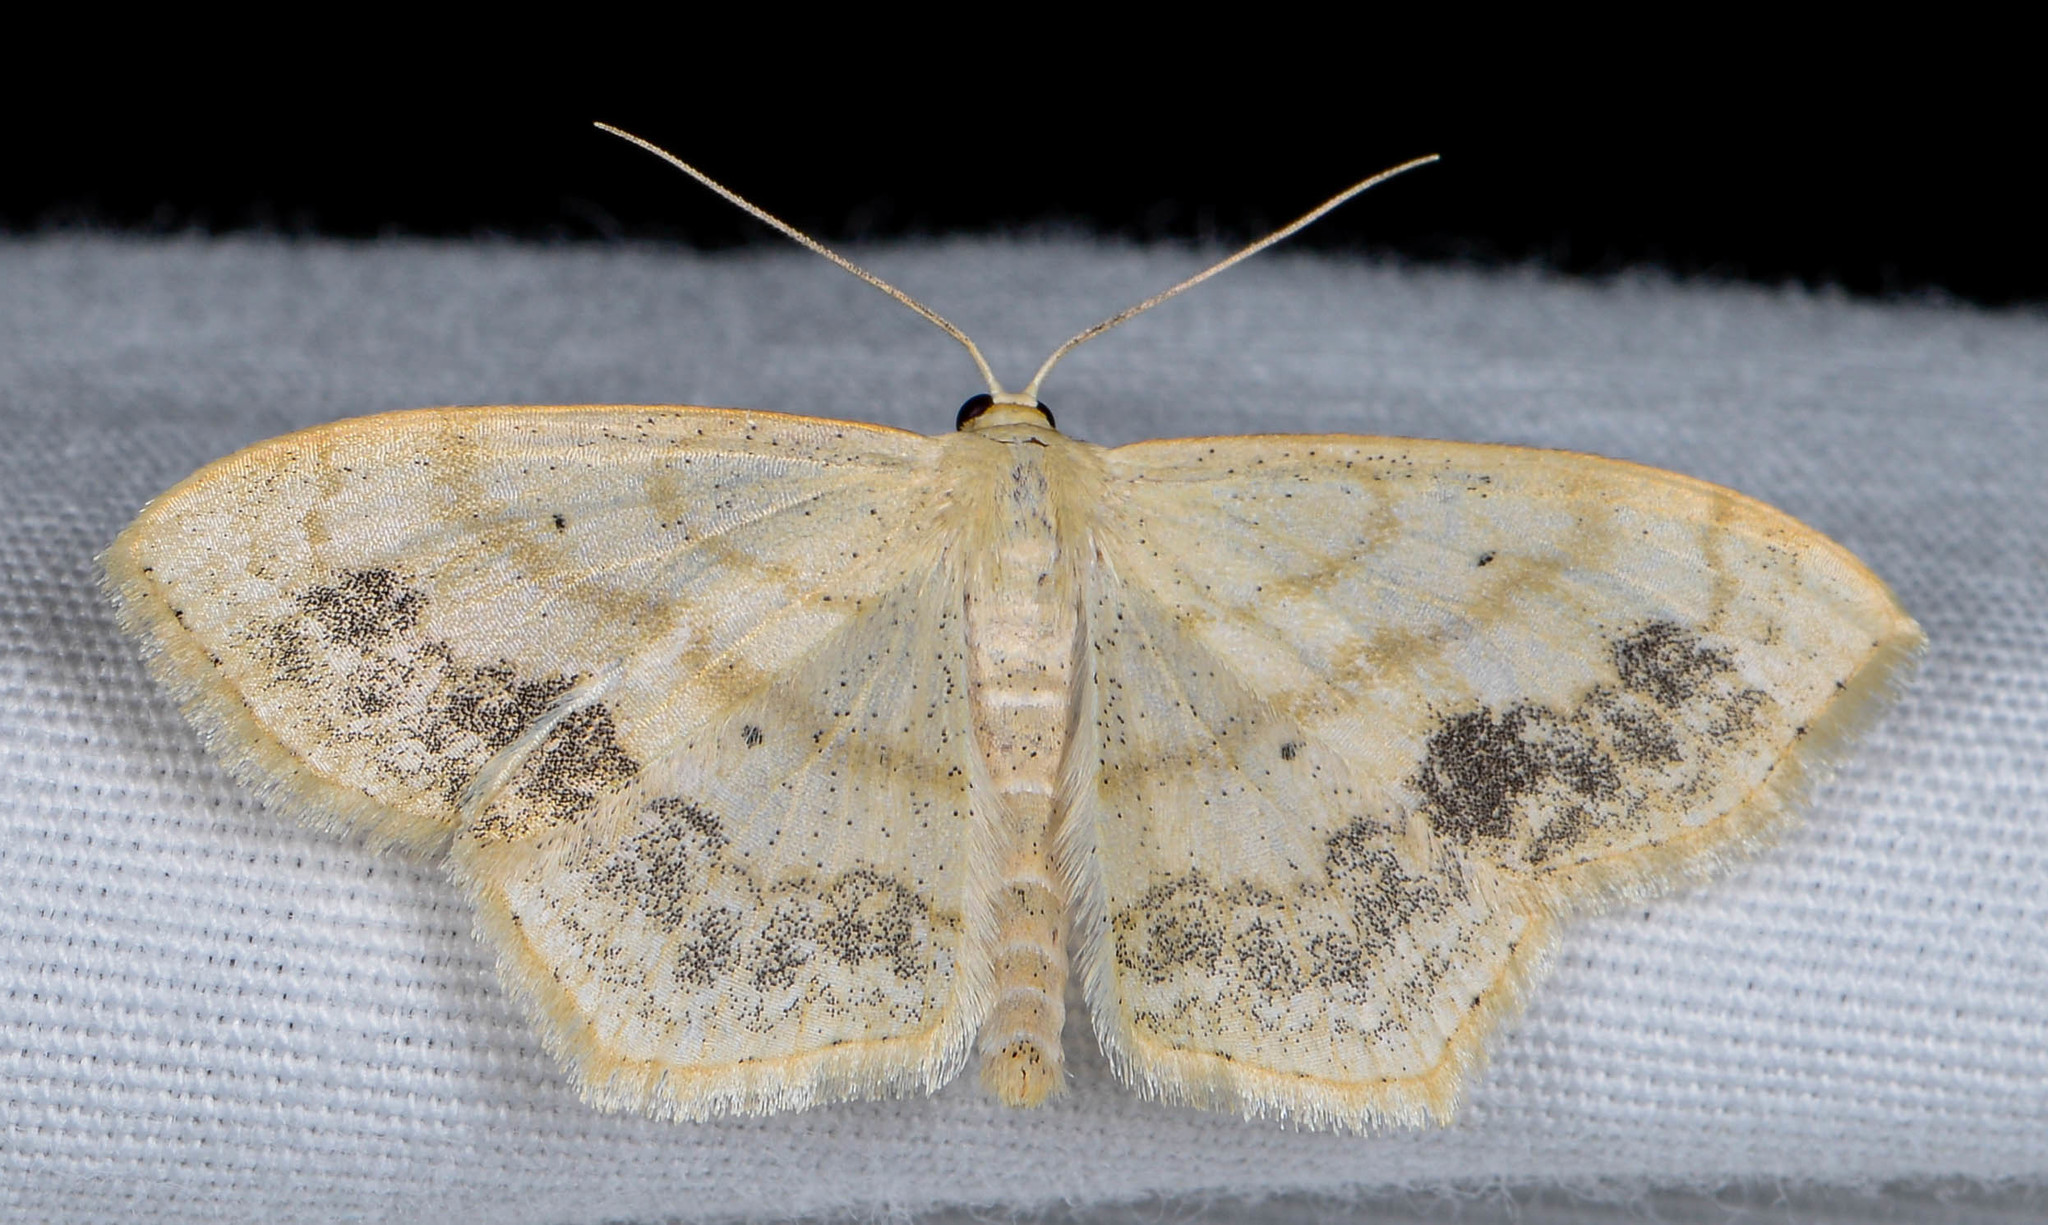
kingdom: Animalia
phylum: Arthropoda
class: Insecta
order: Lepidoptera
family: Geometridae
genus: Scopula
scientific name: Scopula limboundata
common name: Large lace border
